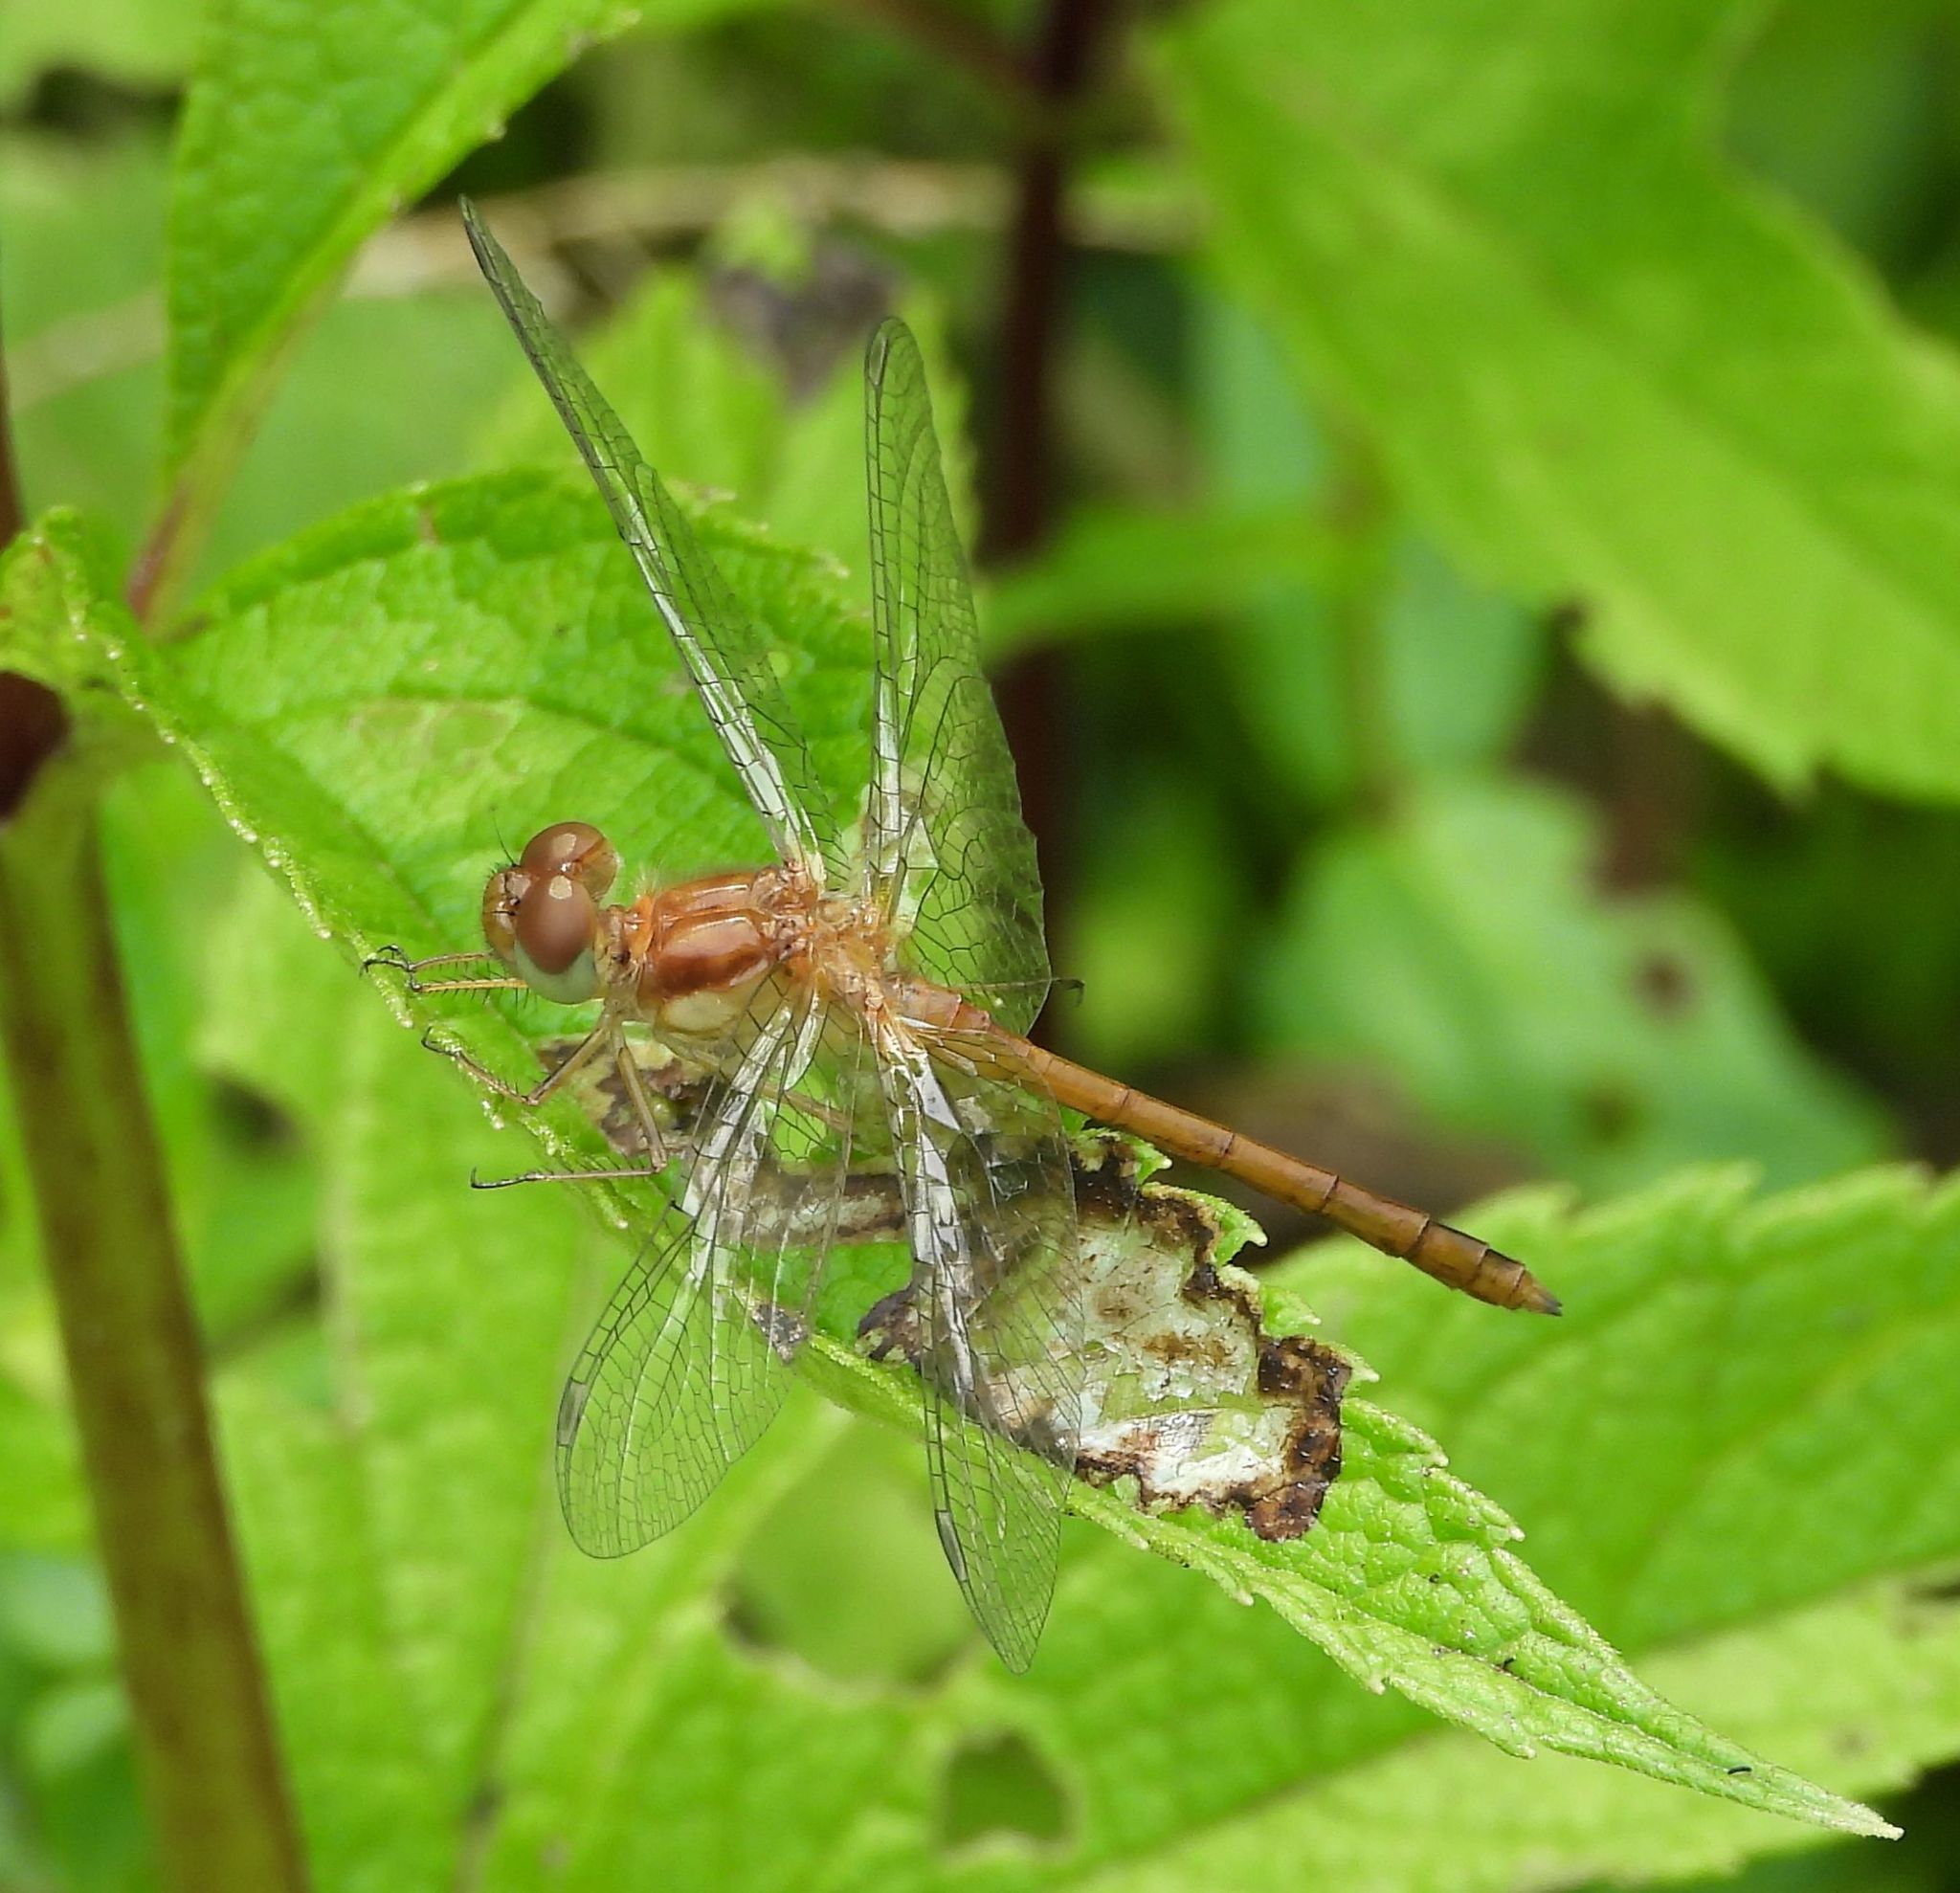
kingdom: Animalia
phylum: Arthropoda
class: Insecta
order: Odonata
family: Libellulidae
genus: Sympetrum
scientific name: Sympetrum vicinum
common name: Autumn meadowhawk
